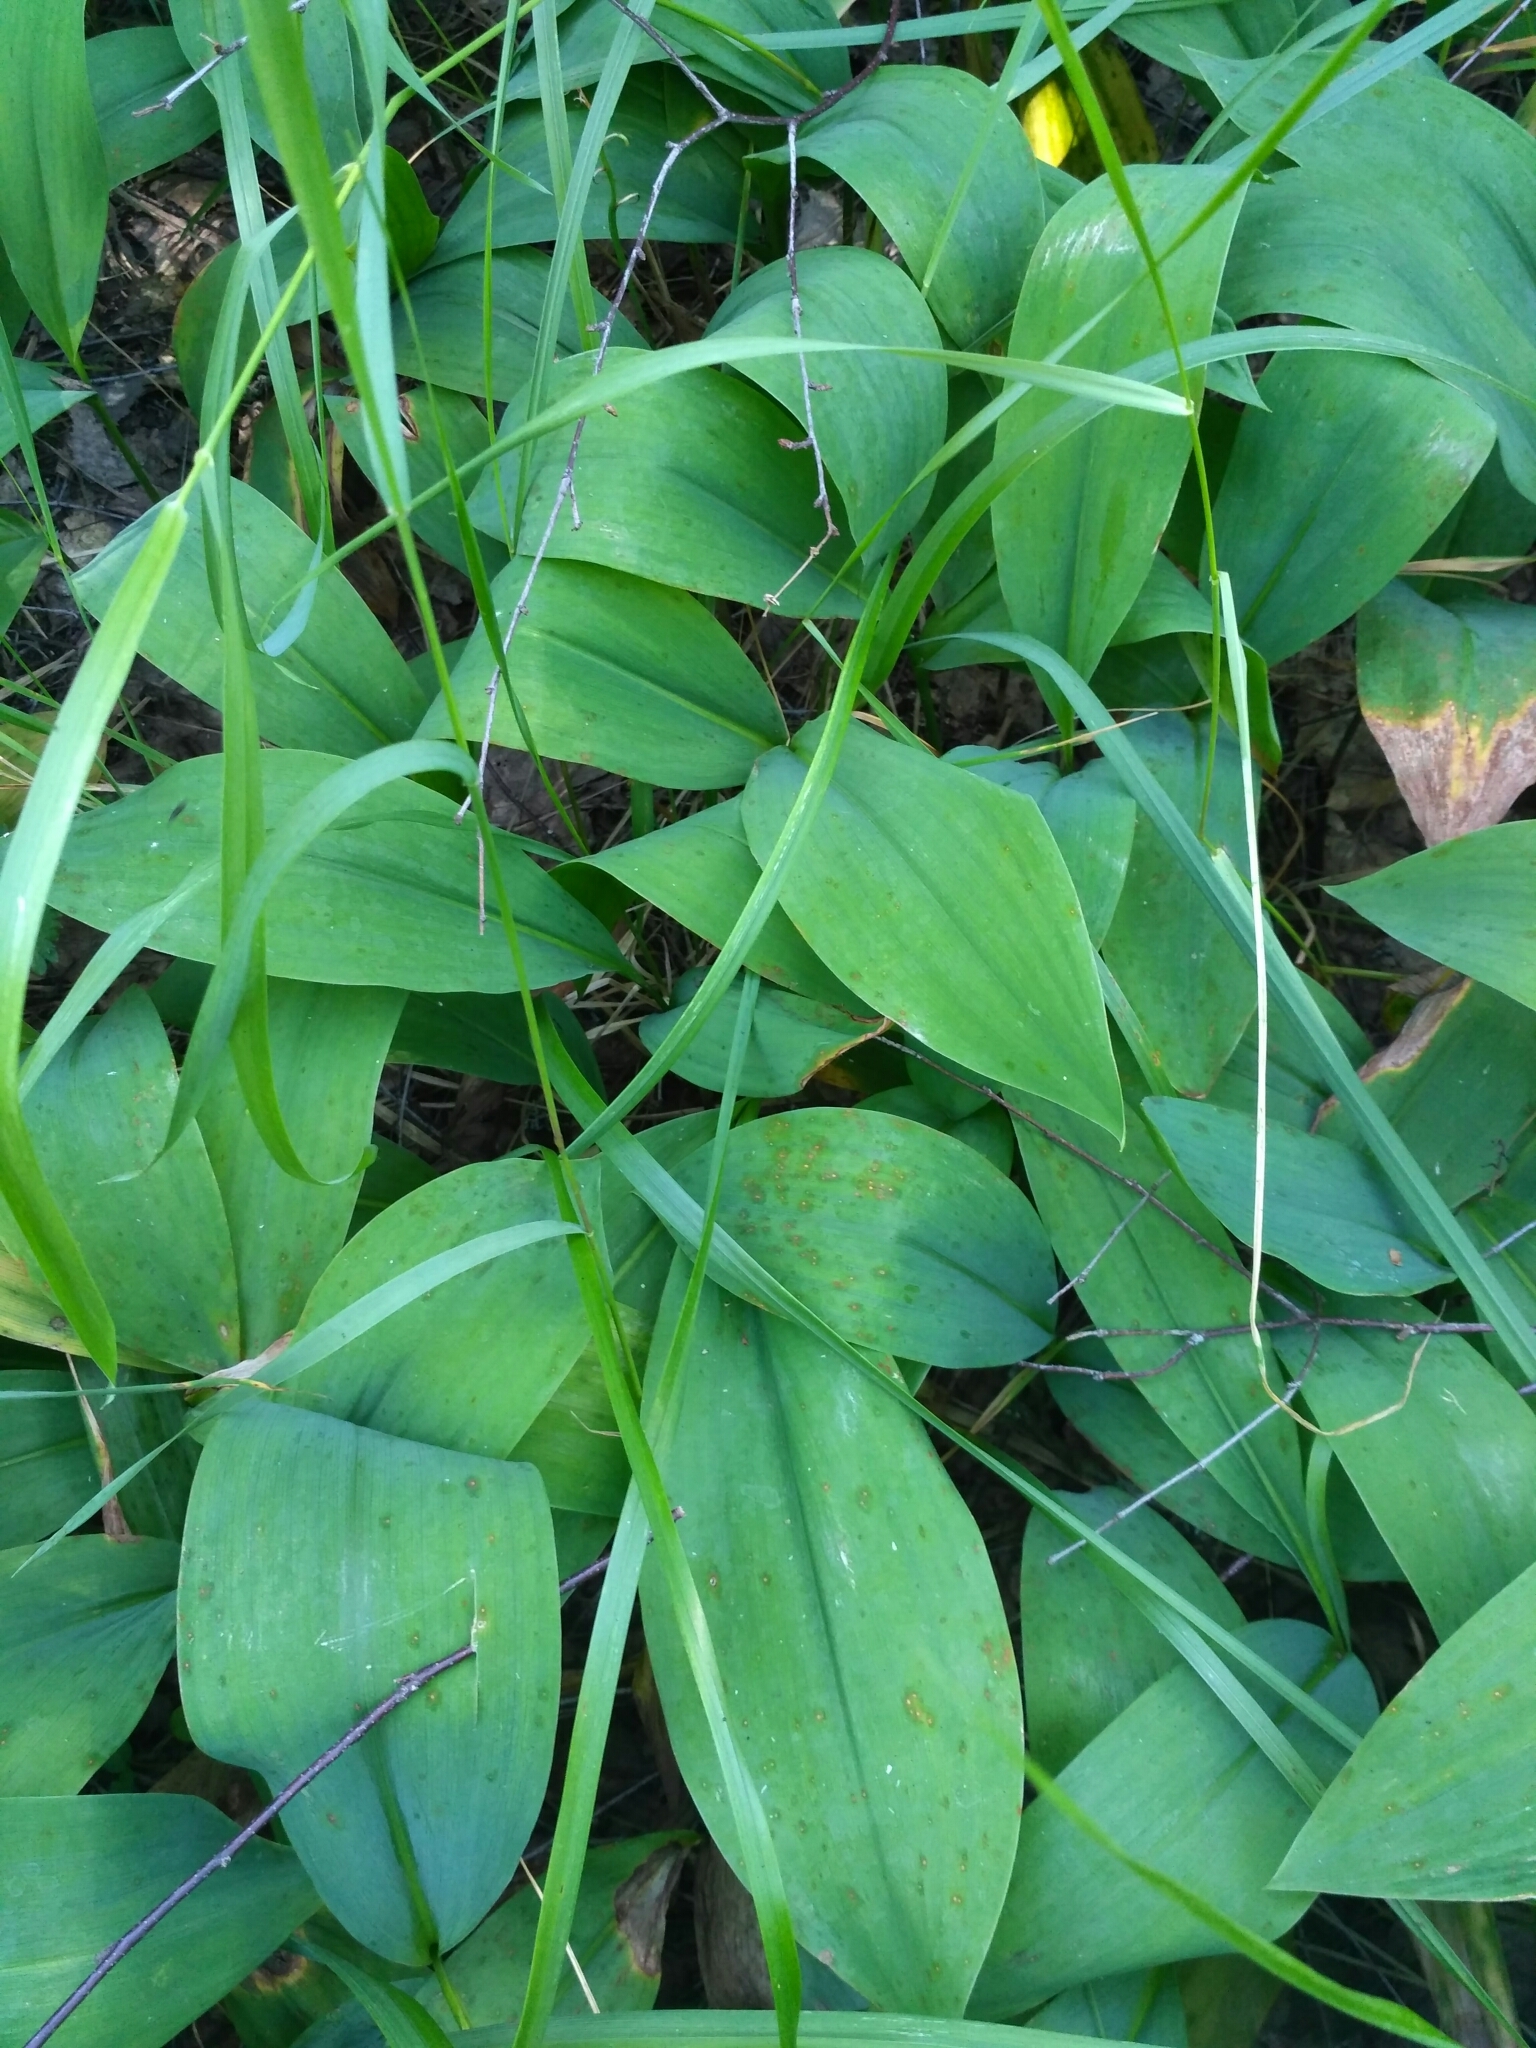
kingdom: Plantae
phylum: Tracheophyta
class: Liliopsida
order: Asparagales
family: Asparagaceae
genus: Convallaria
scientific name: Convallaria majalis
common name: Lily-of-the-valley
